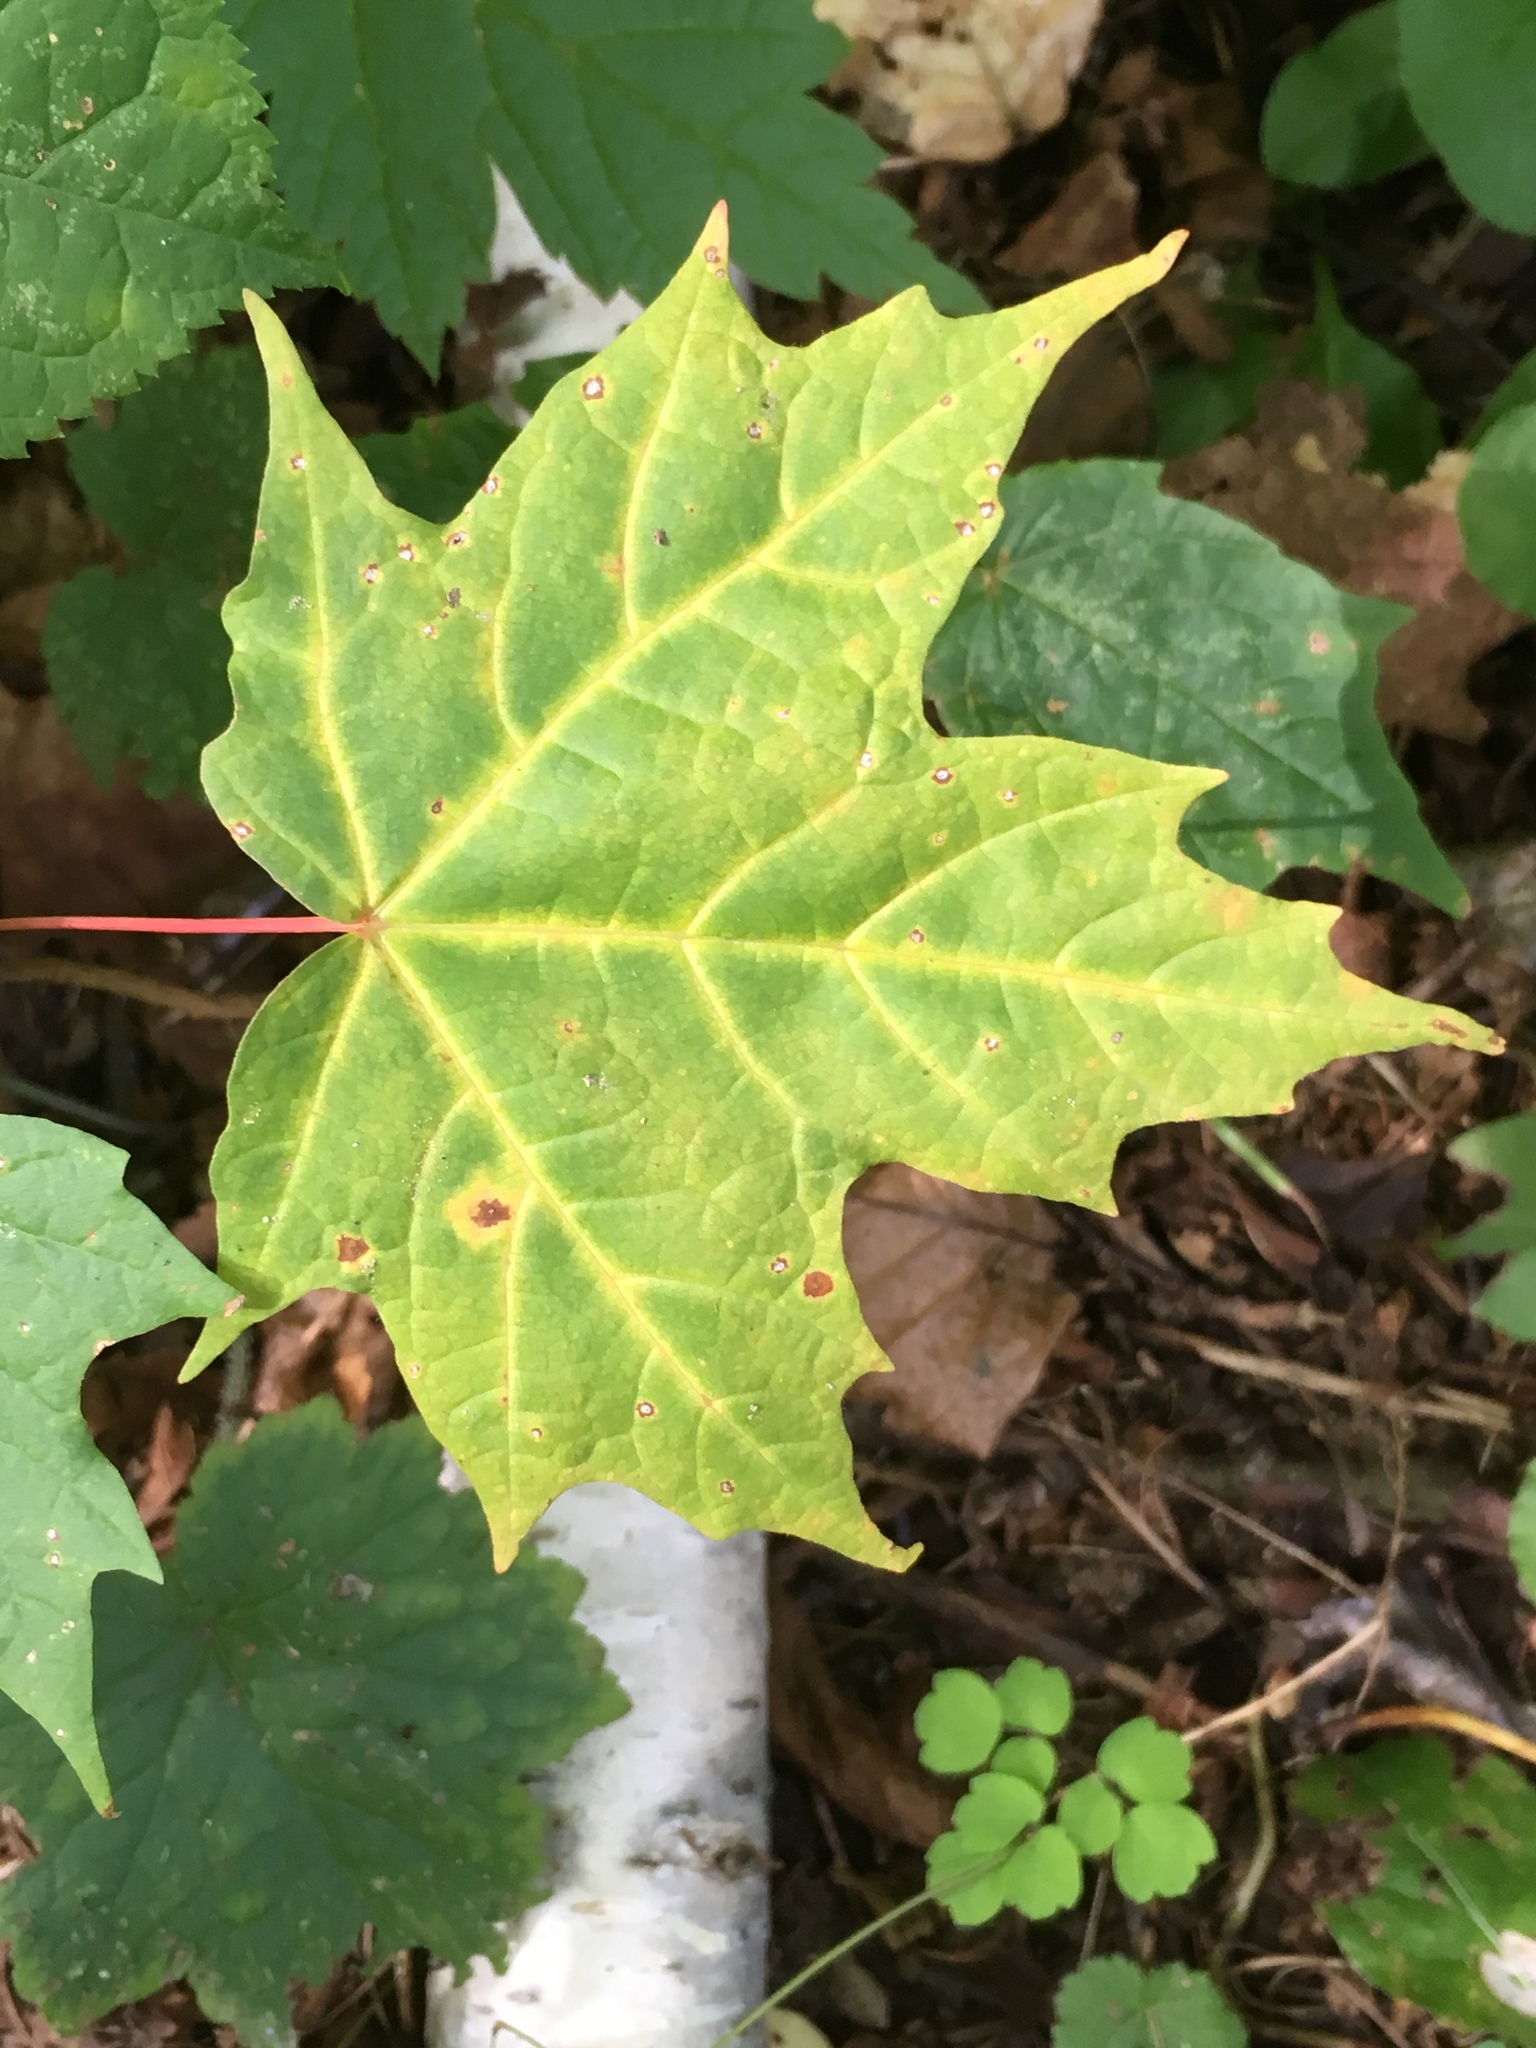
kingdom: Plantae
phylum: Tracheophyta
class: Magnoliopsida
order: Sapindales
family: Sapindaceae
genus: Acer
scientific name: Acer saccharum
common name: Sugar maple
